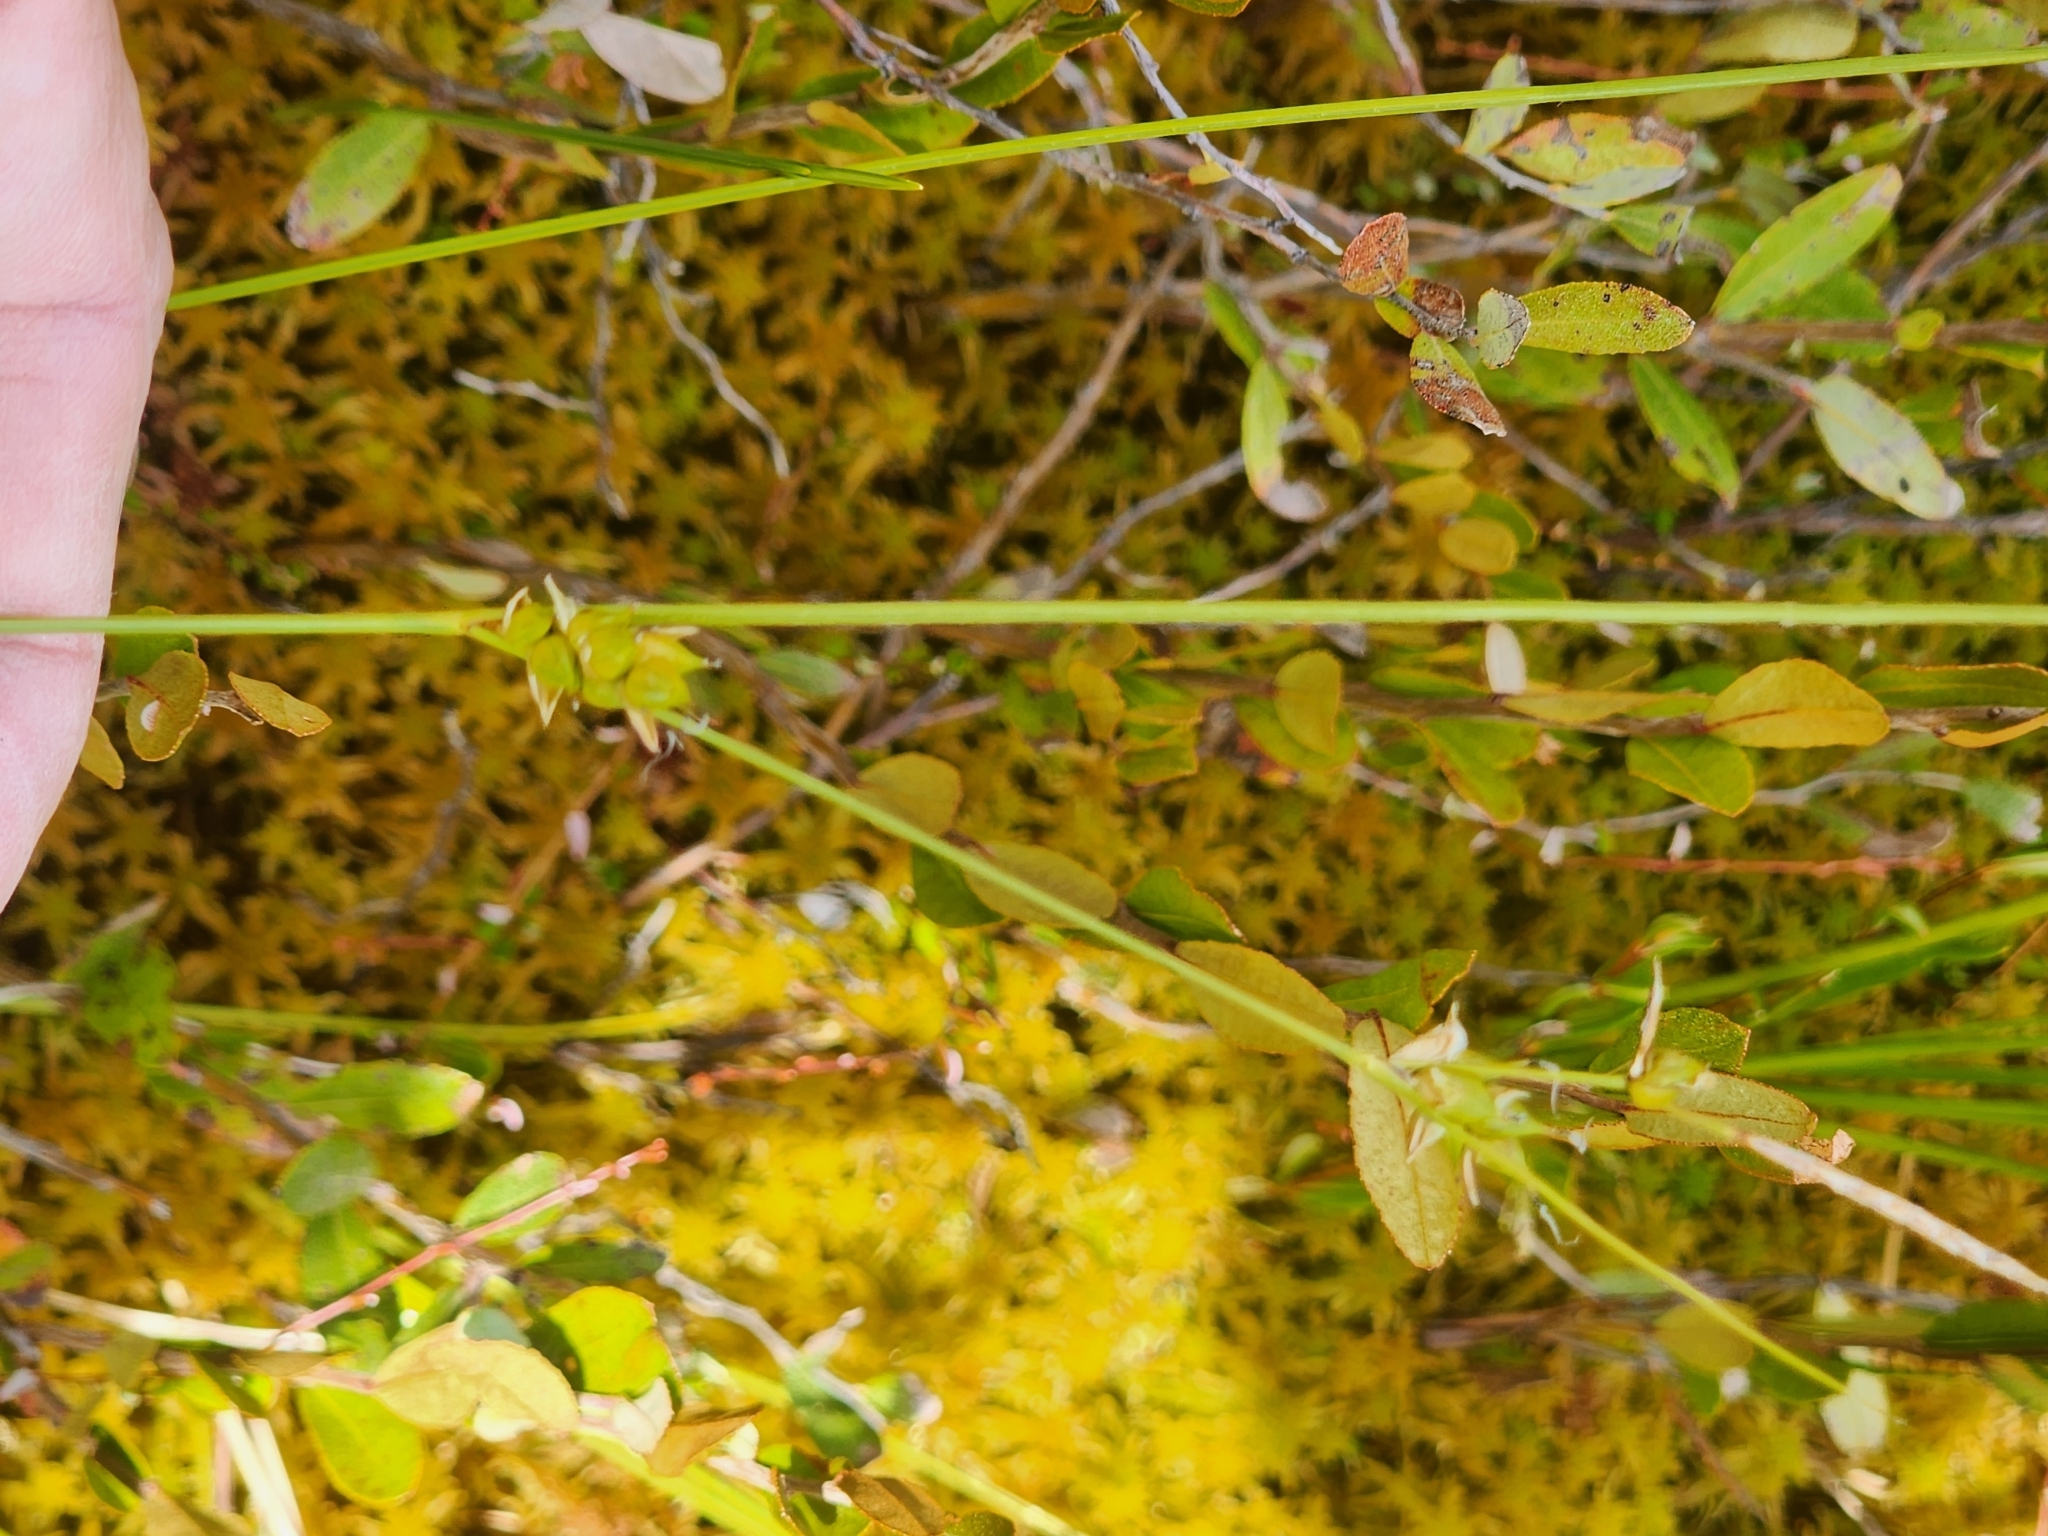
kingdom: Plantae
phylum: Tracheophyta
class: Liliopsida
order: Poales
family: Cyperaceae
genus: Carex
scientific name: Carex oligosperma
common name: Few-seed sedge
